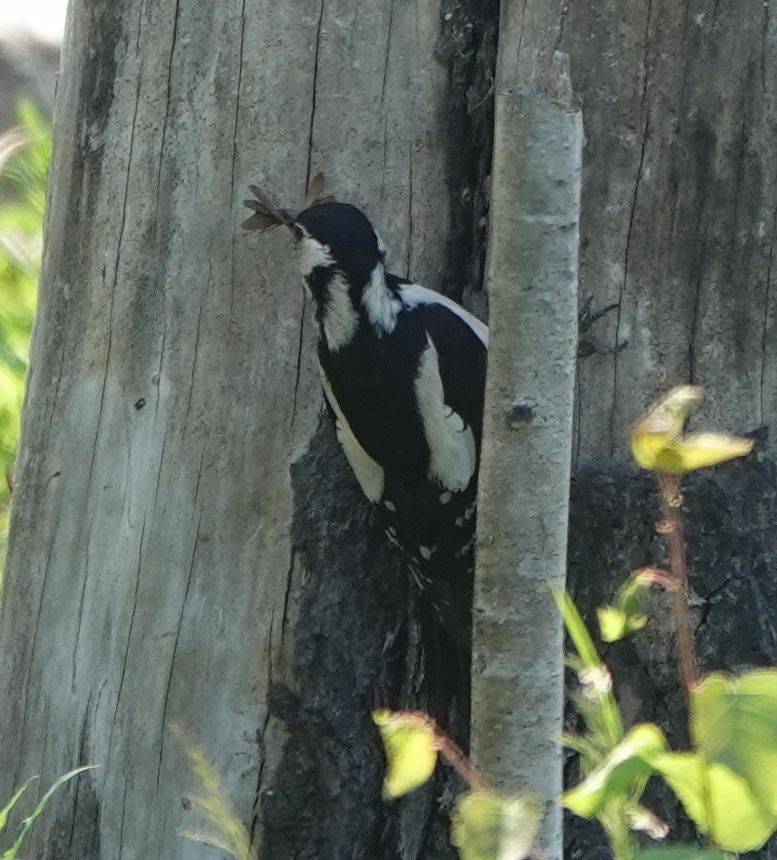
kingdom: Animalia
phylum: Chordata
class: Aves
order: Piciformes
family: Picidae
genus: Dendrocopos
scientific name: Dendrocopos major
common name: Great spotted woodpecker
